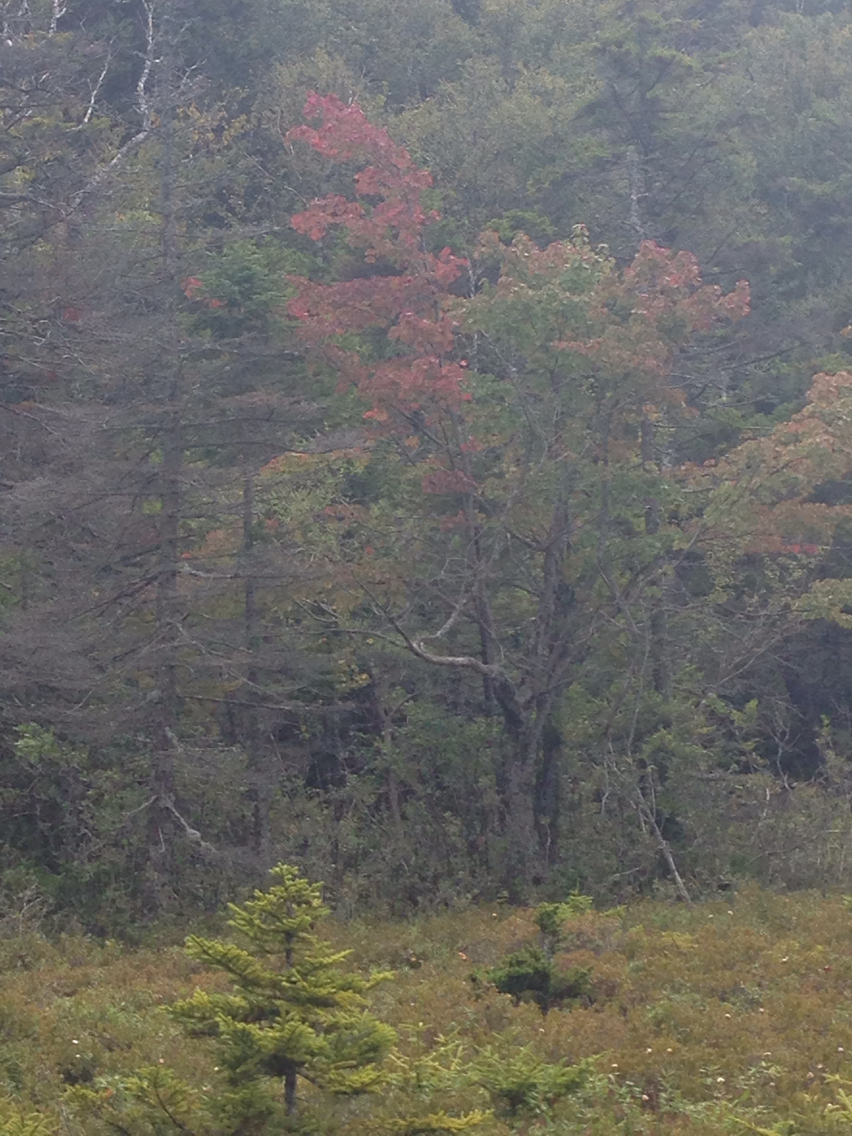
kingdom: Plantae
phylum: Tracheophyta
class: Magnoliopsida
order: Sapindales
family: Sapindaceae
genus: Acer
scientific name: Acer rubrum
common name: Red maple
